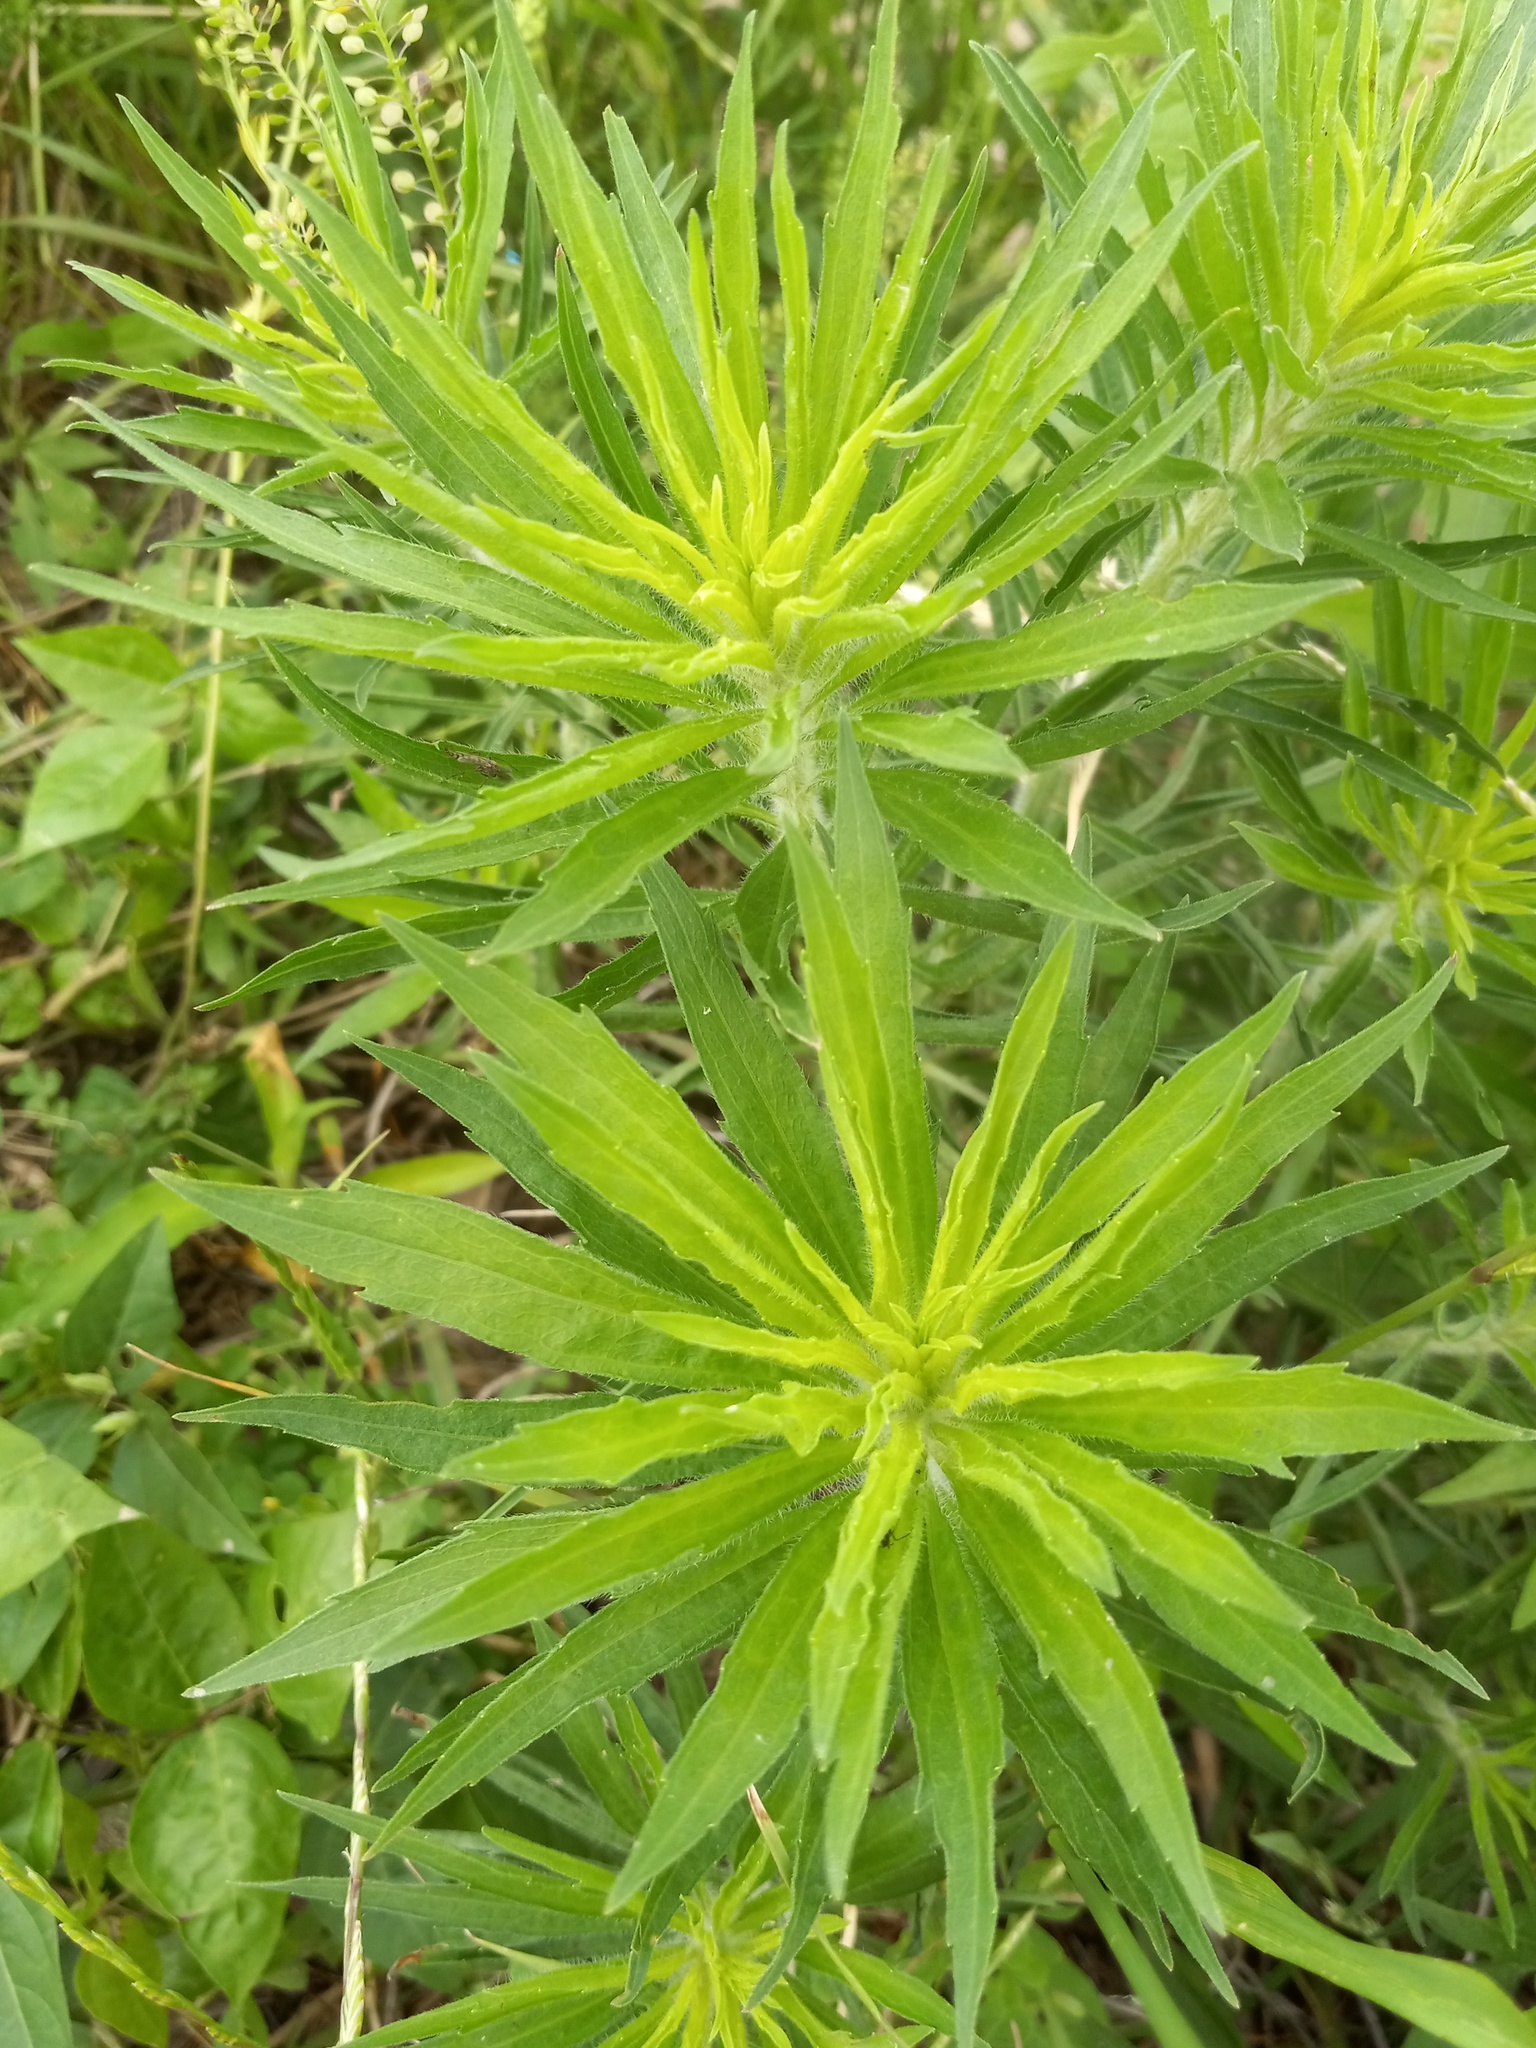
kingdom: Plantae
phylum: Tracheophyta
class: Magnoliopsida
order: Asterales
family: Asteraceae
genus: Erigeron
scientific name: Erigeron canadensis
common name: Canadian fleabane
